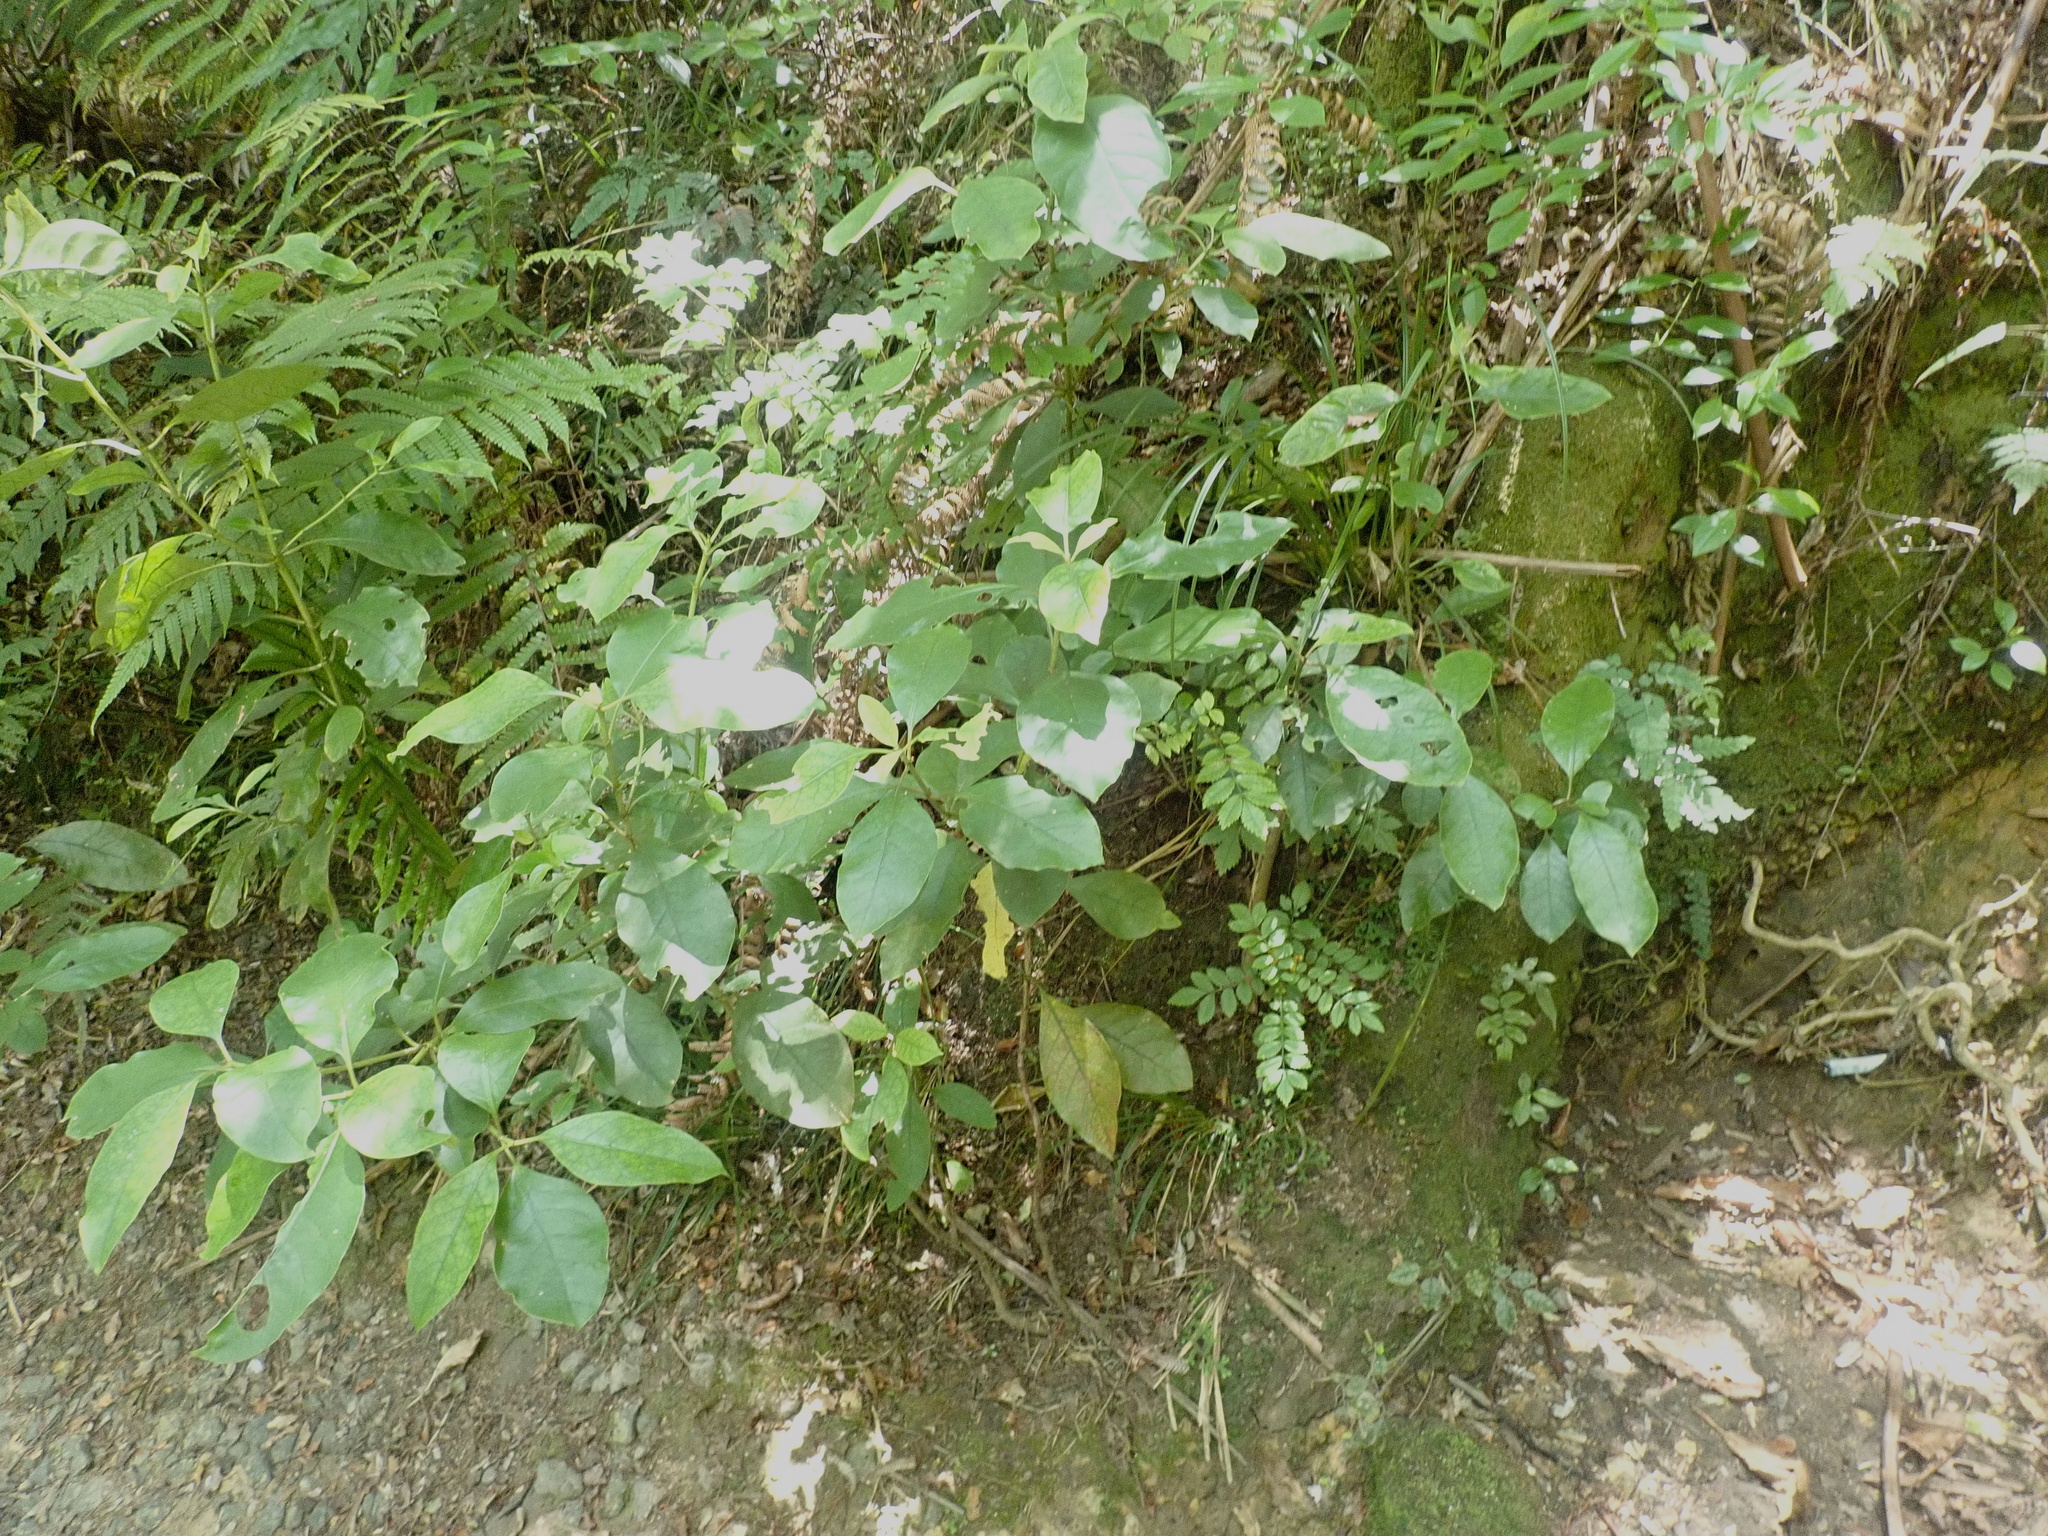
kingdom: Plantae
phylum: Tracheophyta
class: Magnoliopsida
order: Gentianales
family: Rubiaceae
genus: Coprosma
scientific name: Coprosma autumnalis
